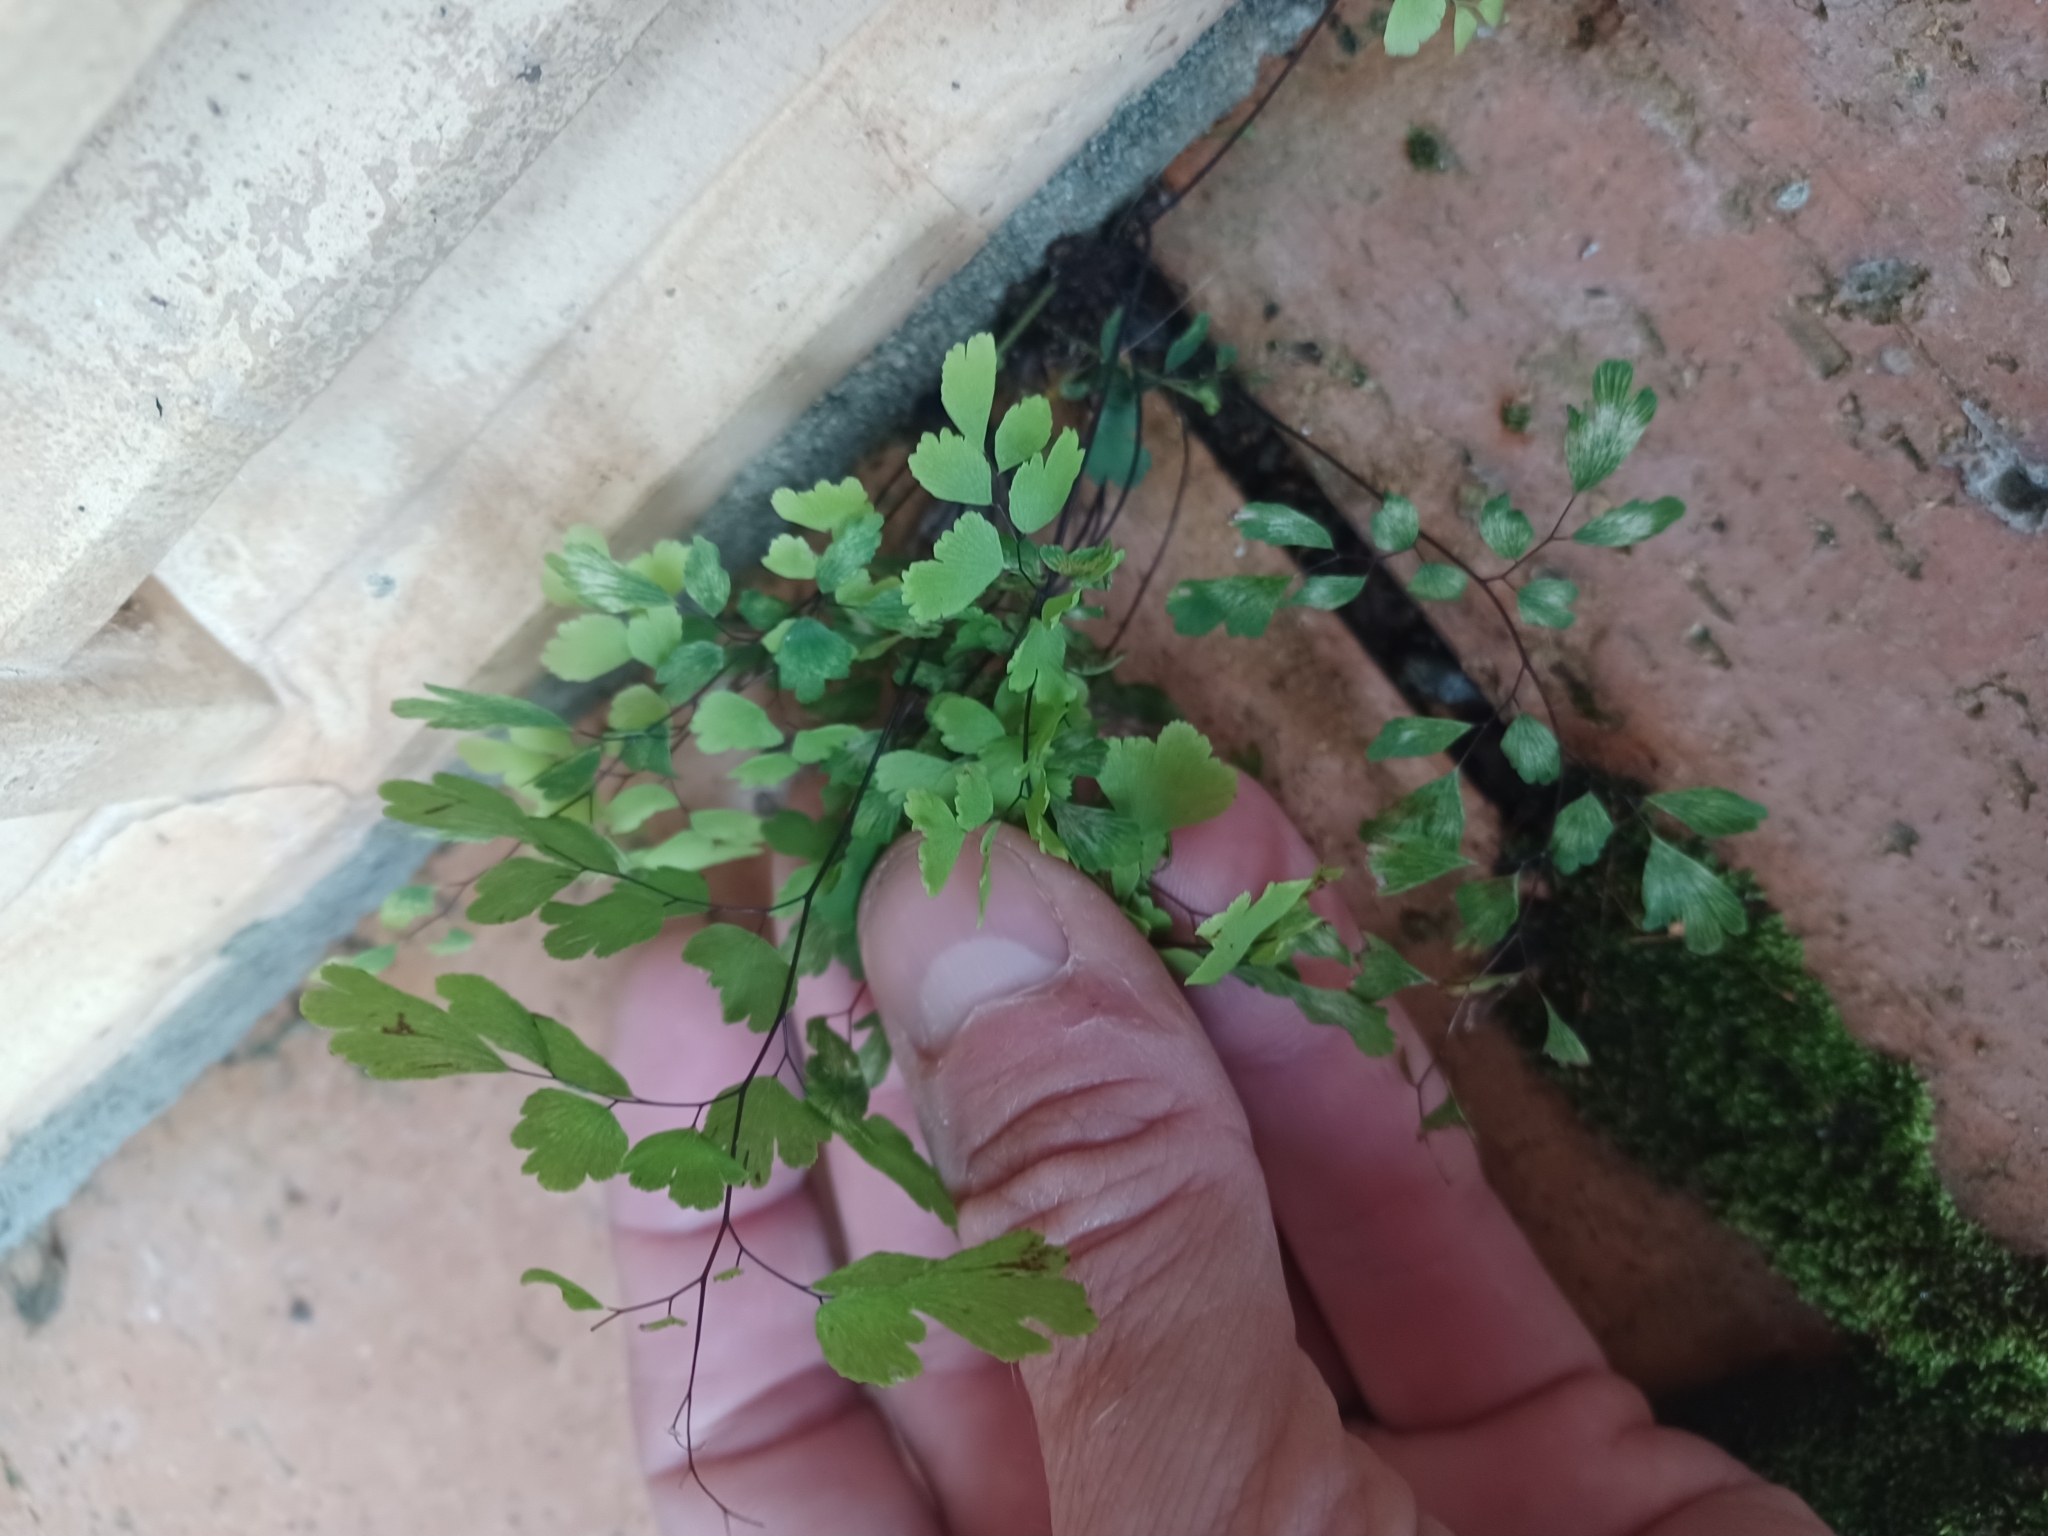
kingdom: Plantae
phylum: Tracheophyta
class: Polypodiopsida
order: Polypodiales
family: Pteridaceae
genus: Adiantum
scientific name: Adiantum atroviride
